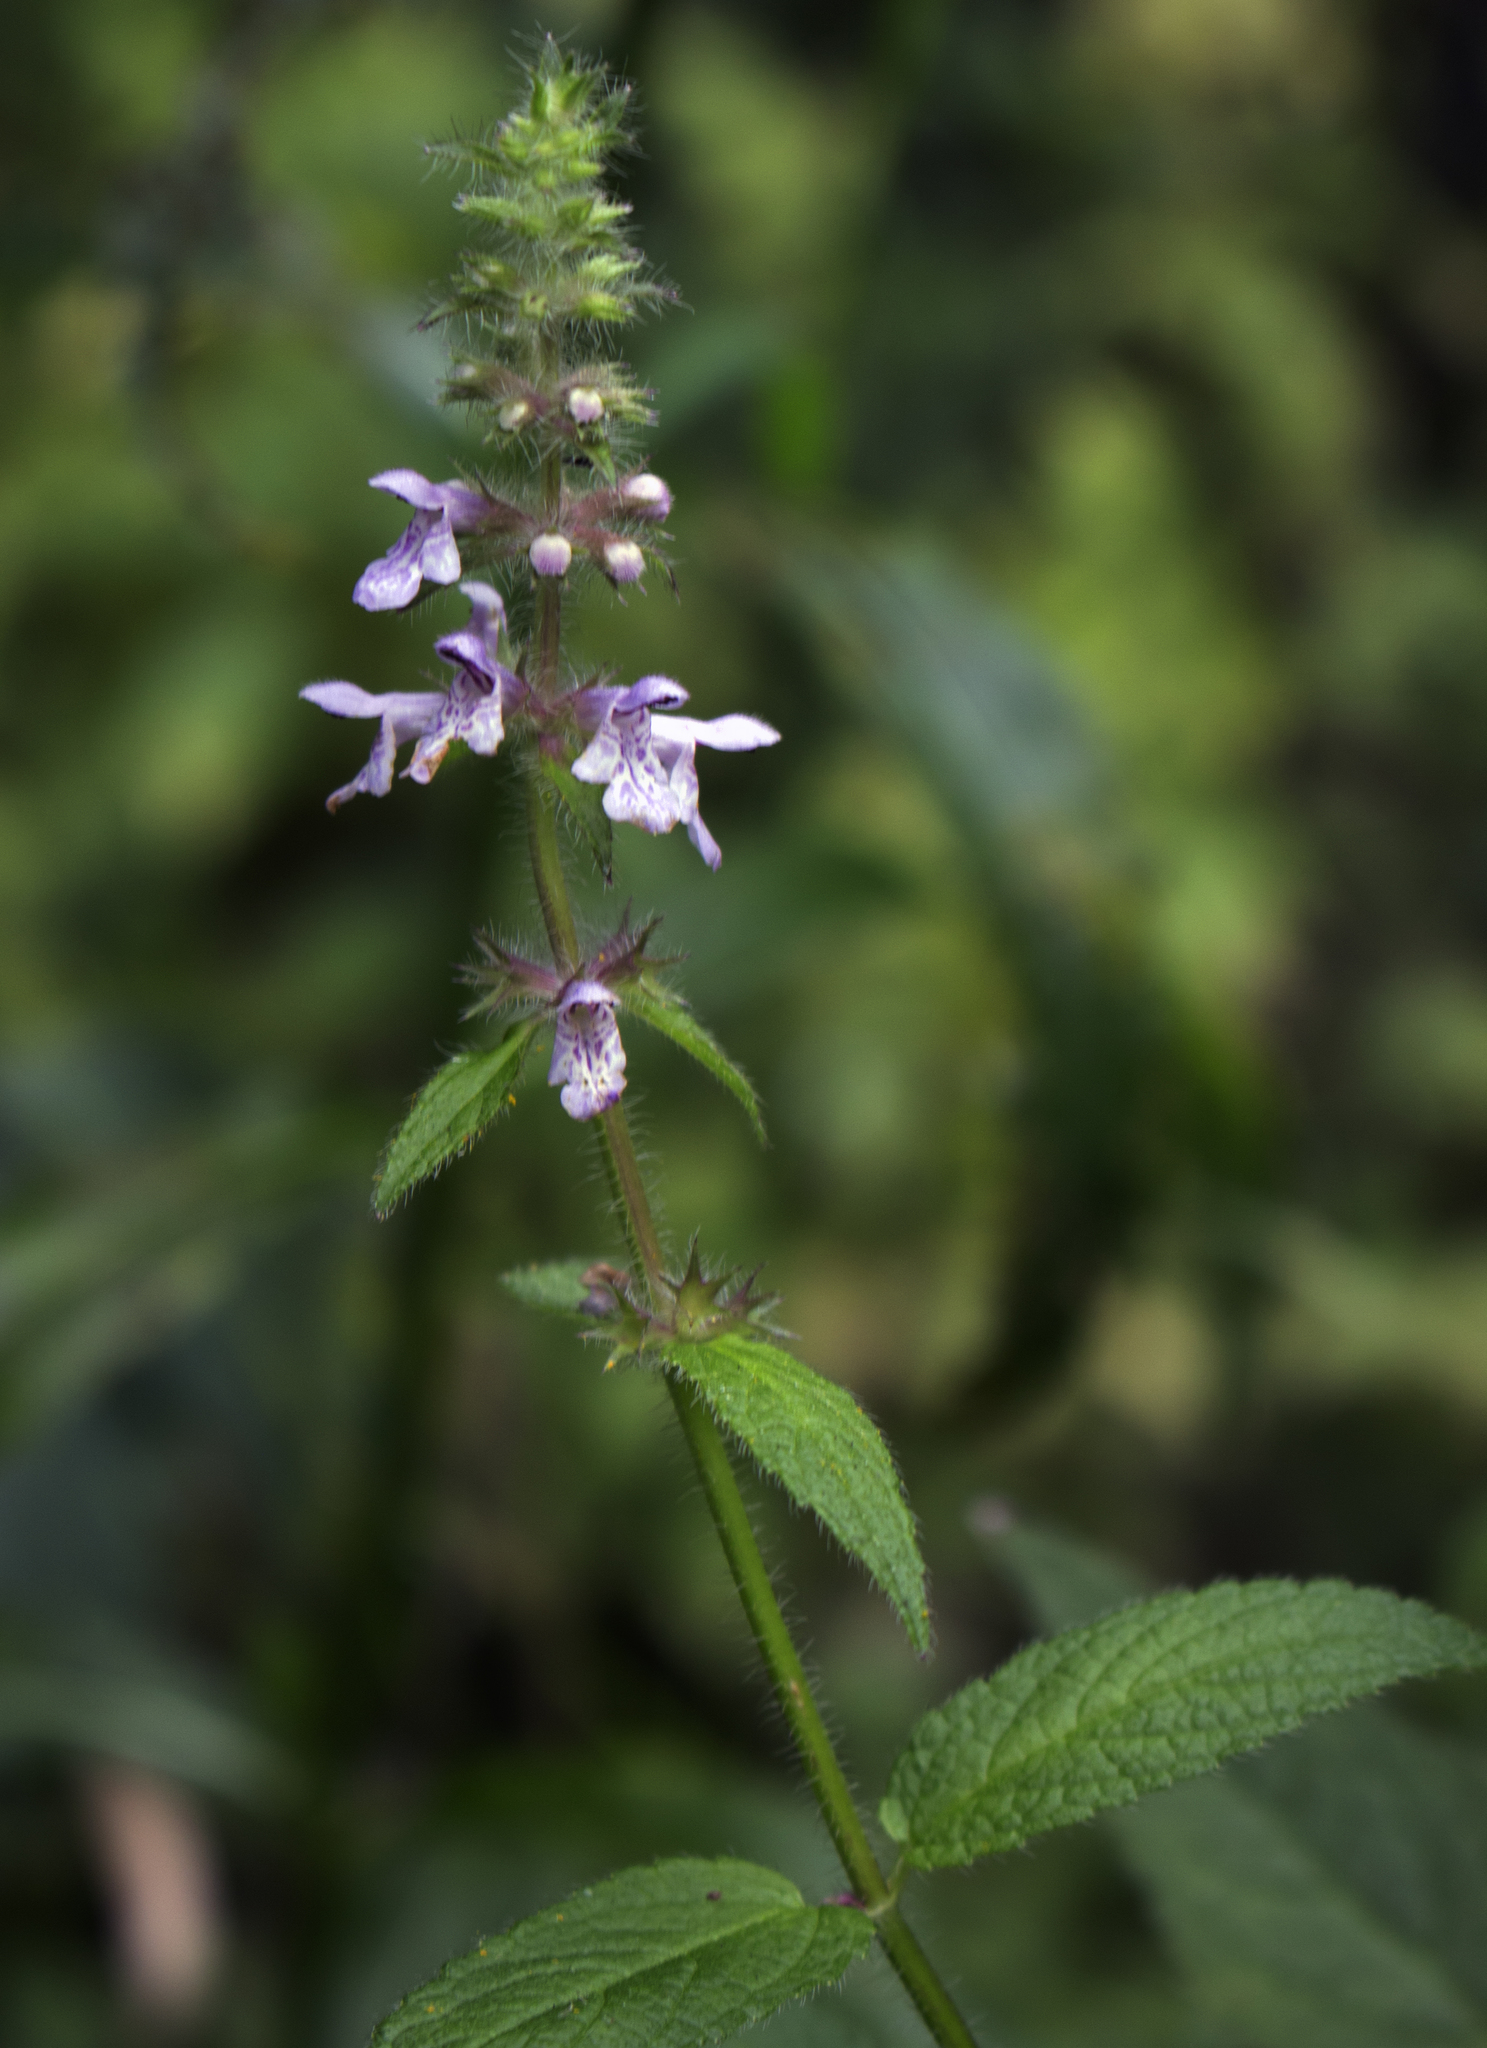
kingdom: Plantae
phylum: Tracheophyta
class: Magnoliopsida
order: Lamiales
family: Lamiaceae
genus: Stachys
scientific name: Stachys hispida
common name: Hispid hedge-nettle
